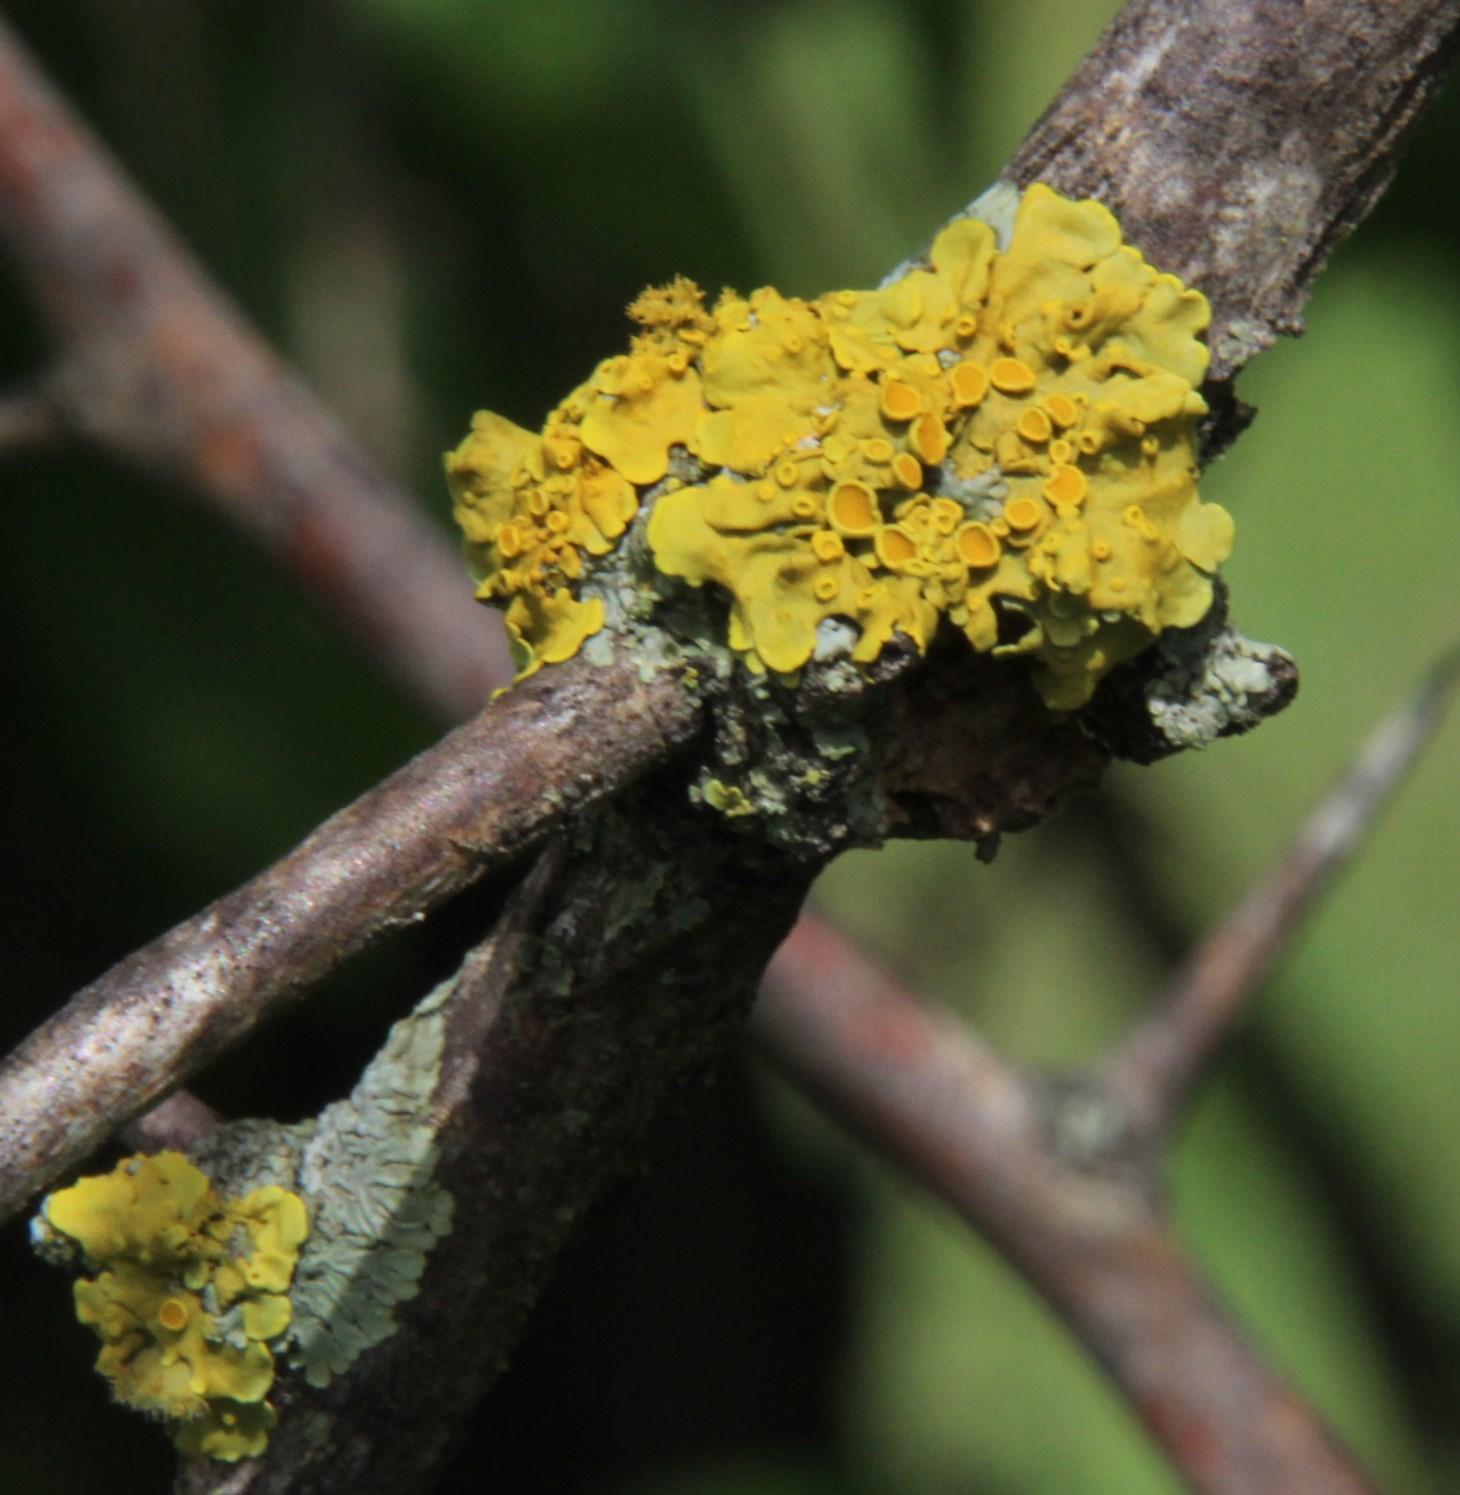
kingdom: Fungi
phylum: Ascomycota
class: Lecanoromycetes
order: Teloschistales
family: Teloschistaceae
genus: Xanthoria
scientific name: Xanthoria parietina
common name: Common orange lichen
